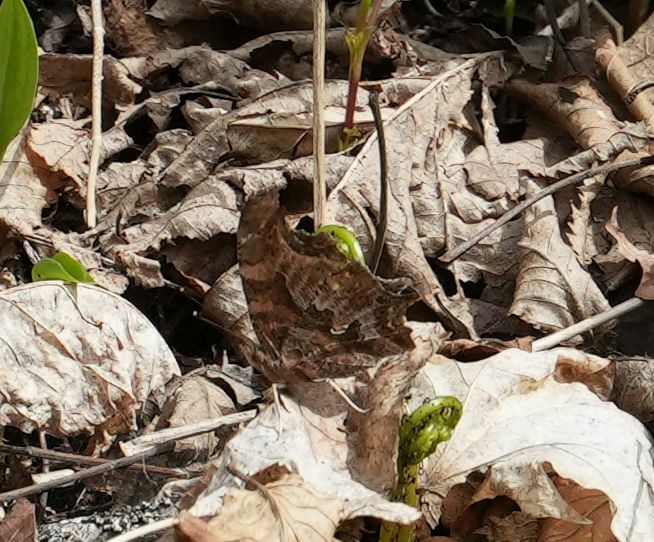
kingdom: Animalia
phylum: Arthropoda
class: Insecta
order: Lepidoptera
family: Nymphalidae
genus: Polygonia
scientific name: Polygonia comma
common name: Eastern comma
